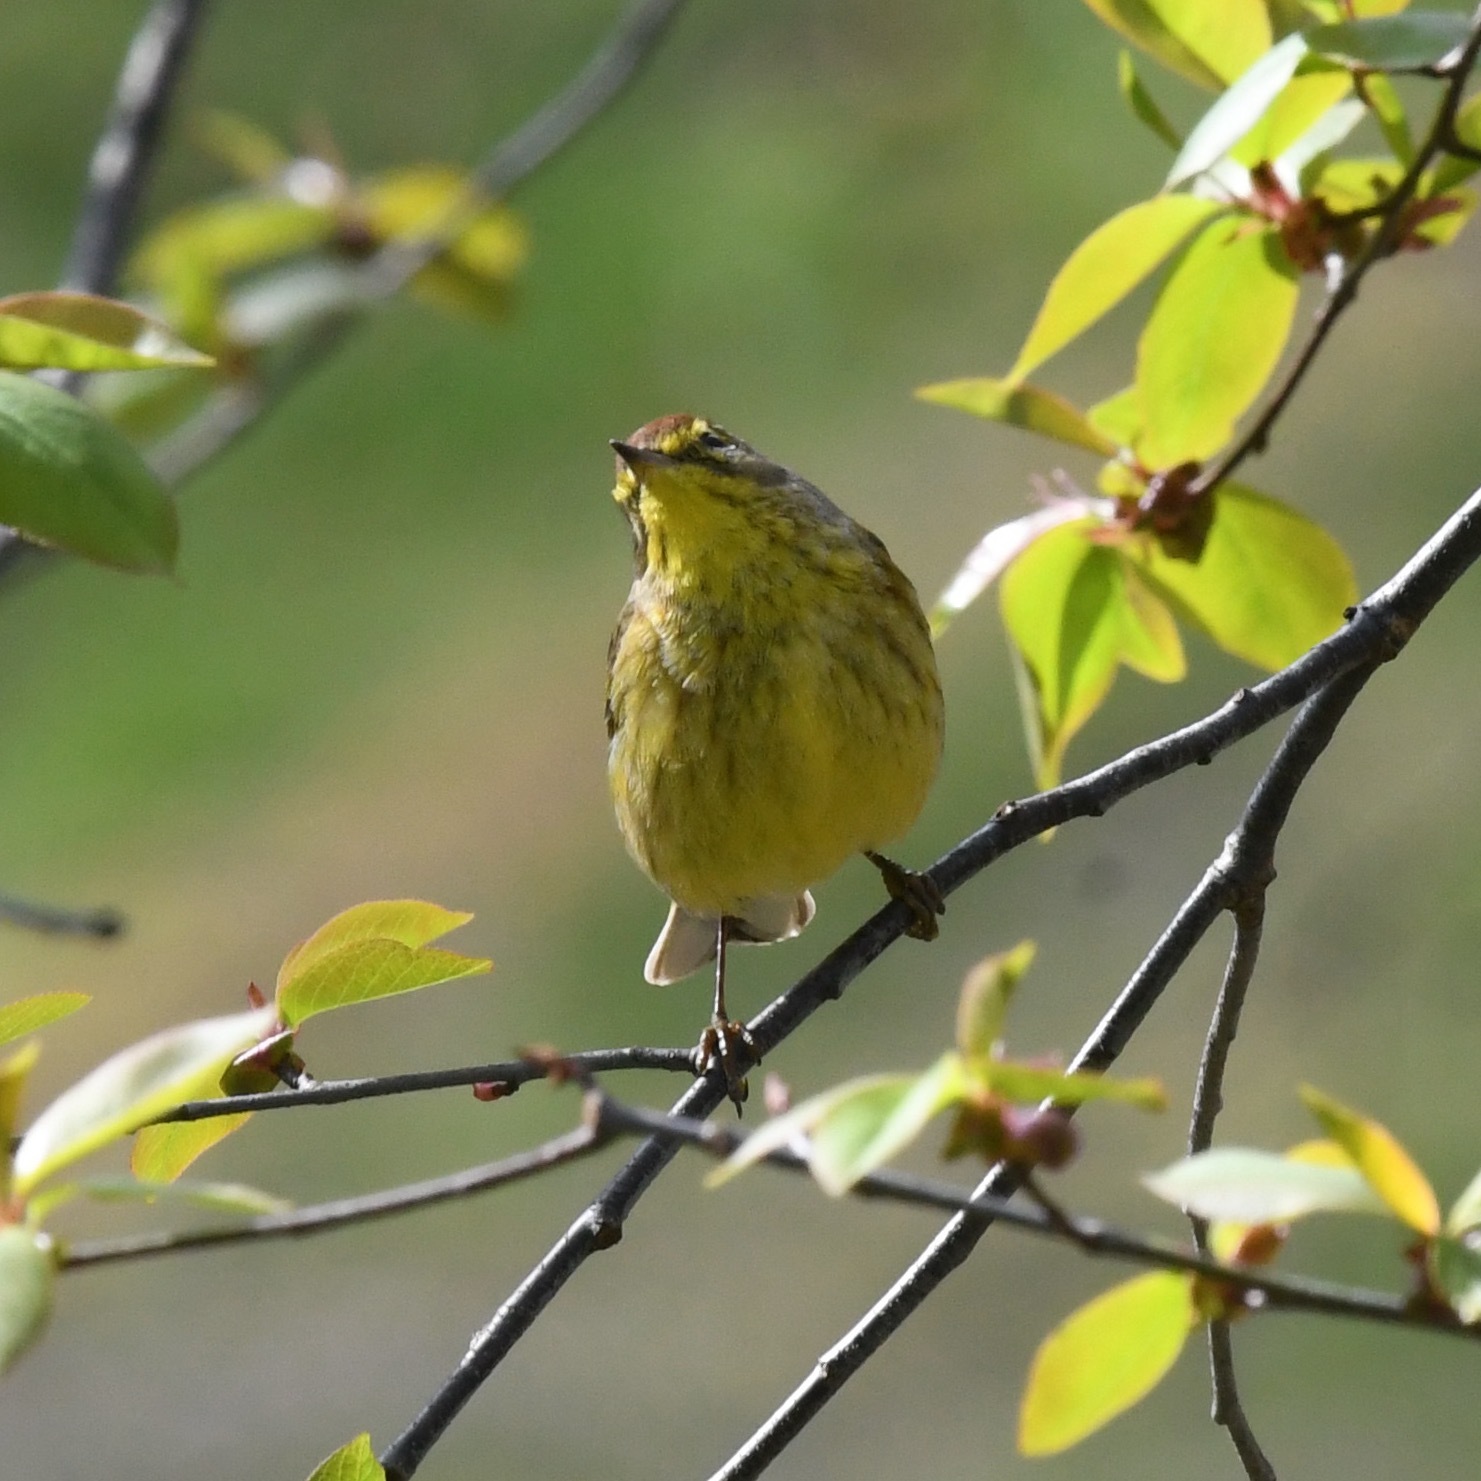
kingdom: Animalia
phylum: Chordata
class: Aves
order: Passeriformes
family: Parulidae
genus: Setophaga
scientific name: Setophaga palmarum
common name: Palm warbler
